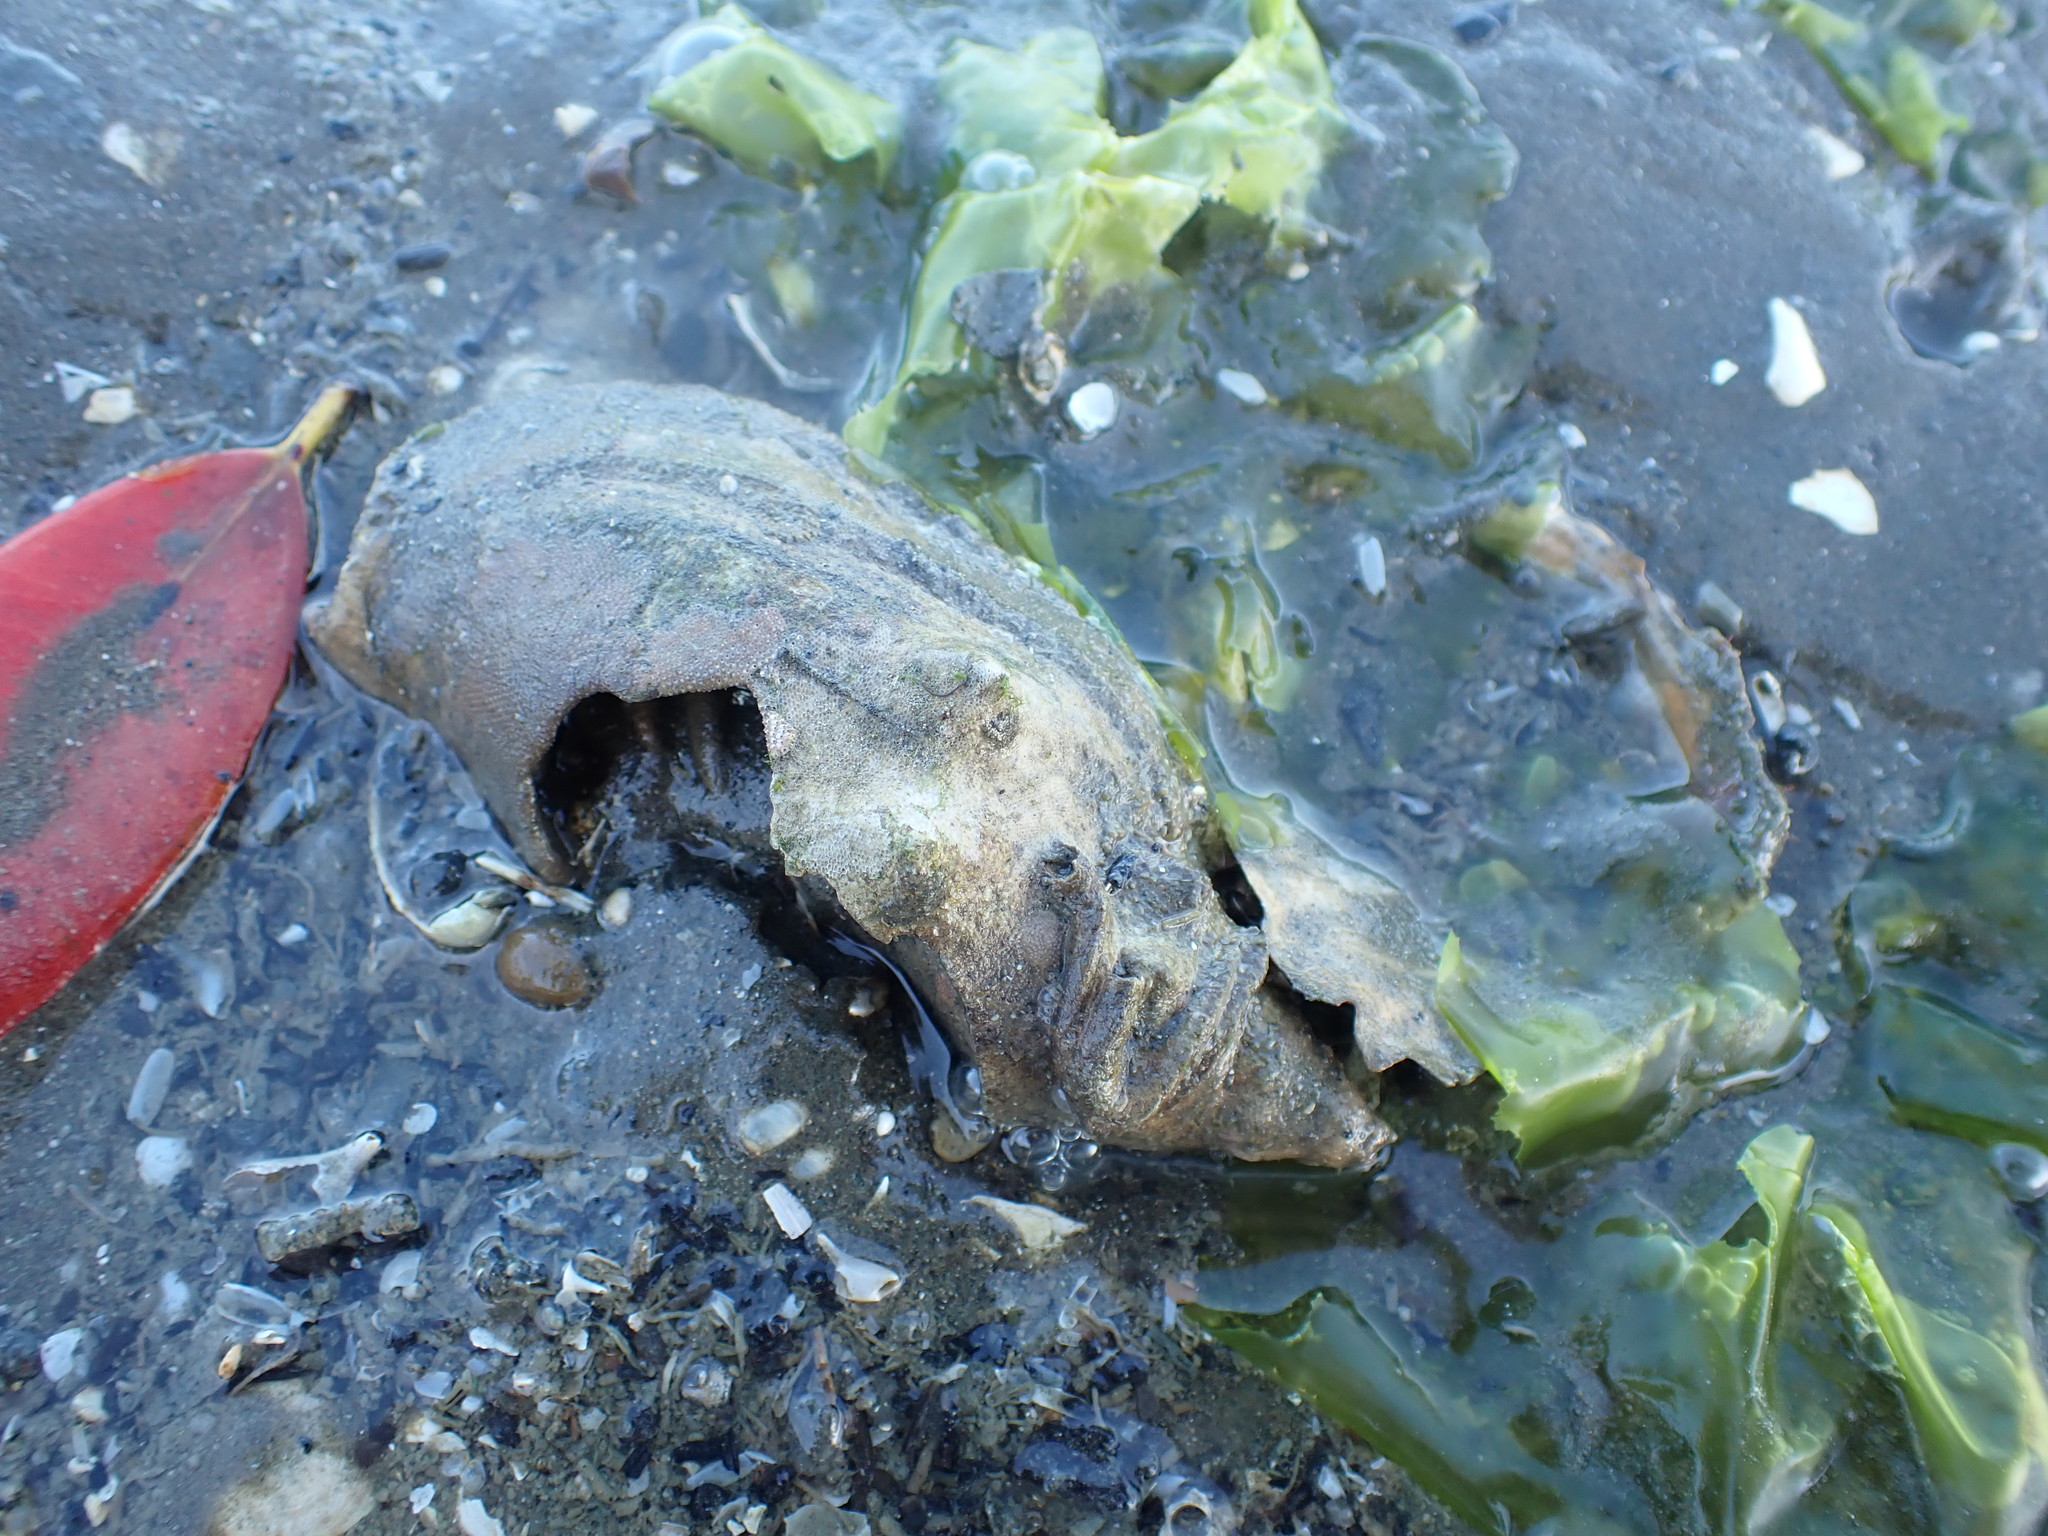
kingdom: Animalia
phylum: Mollusca
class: Gastropoda
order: Neogastropoda
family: Volutidae
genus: Alcithoe
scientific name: Alcithoe arabica
